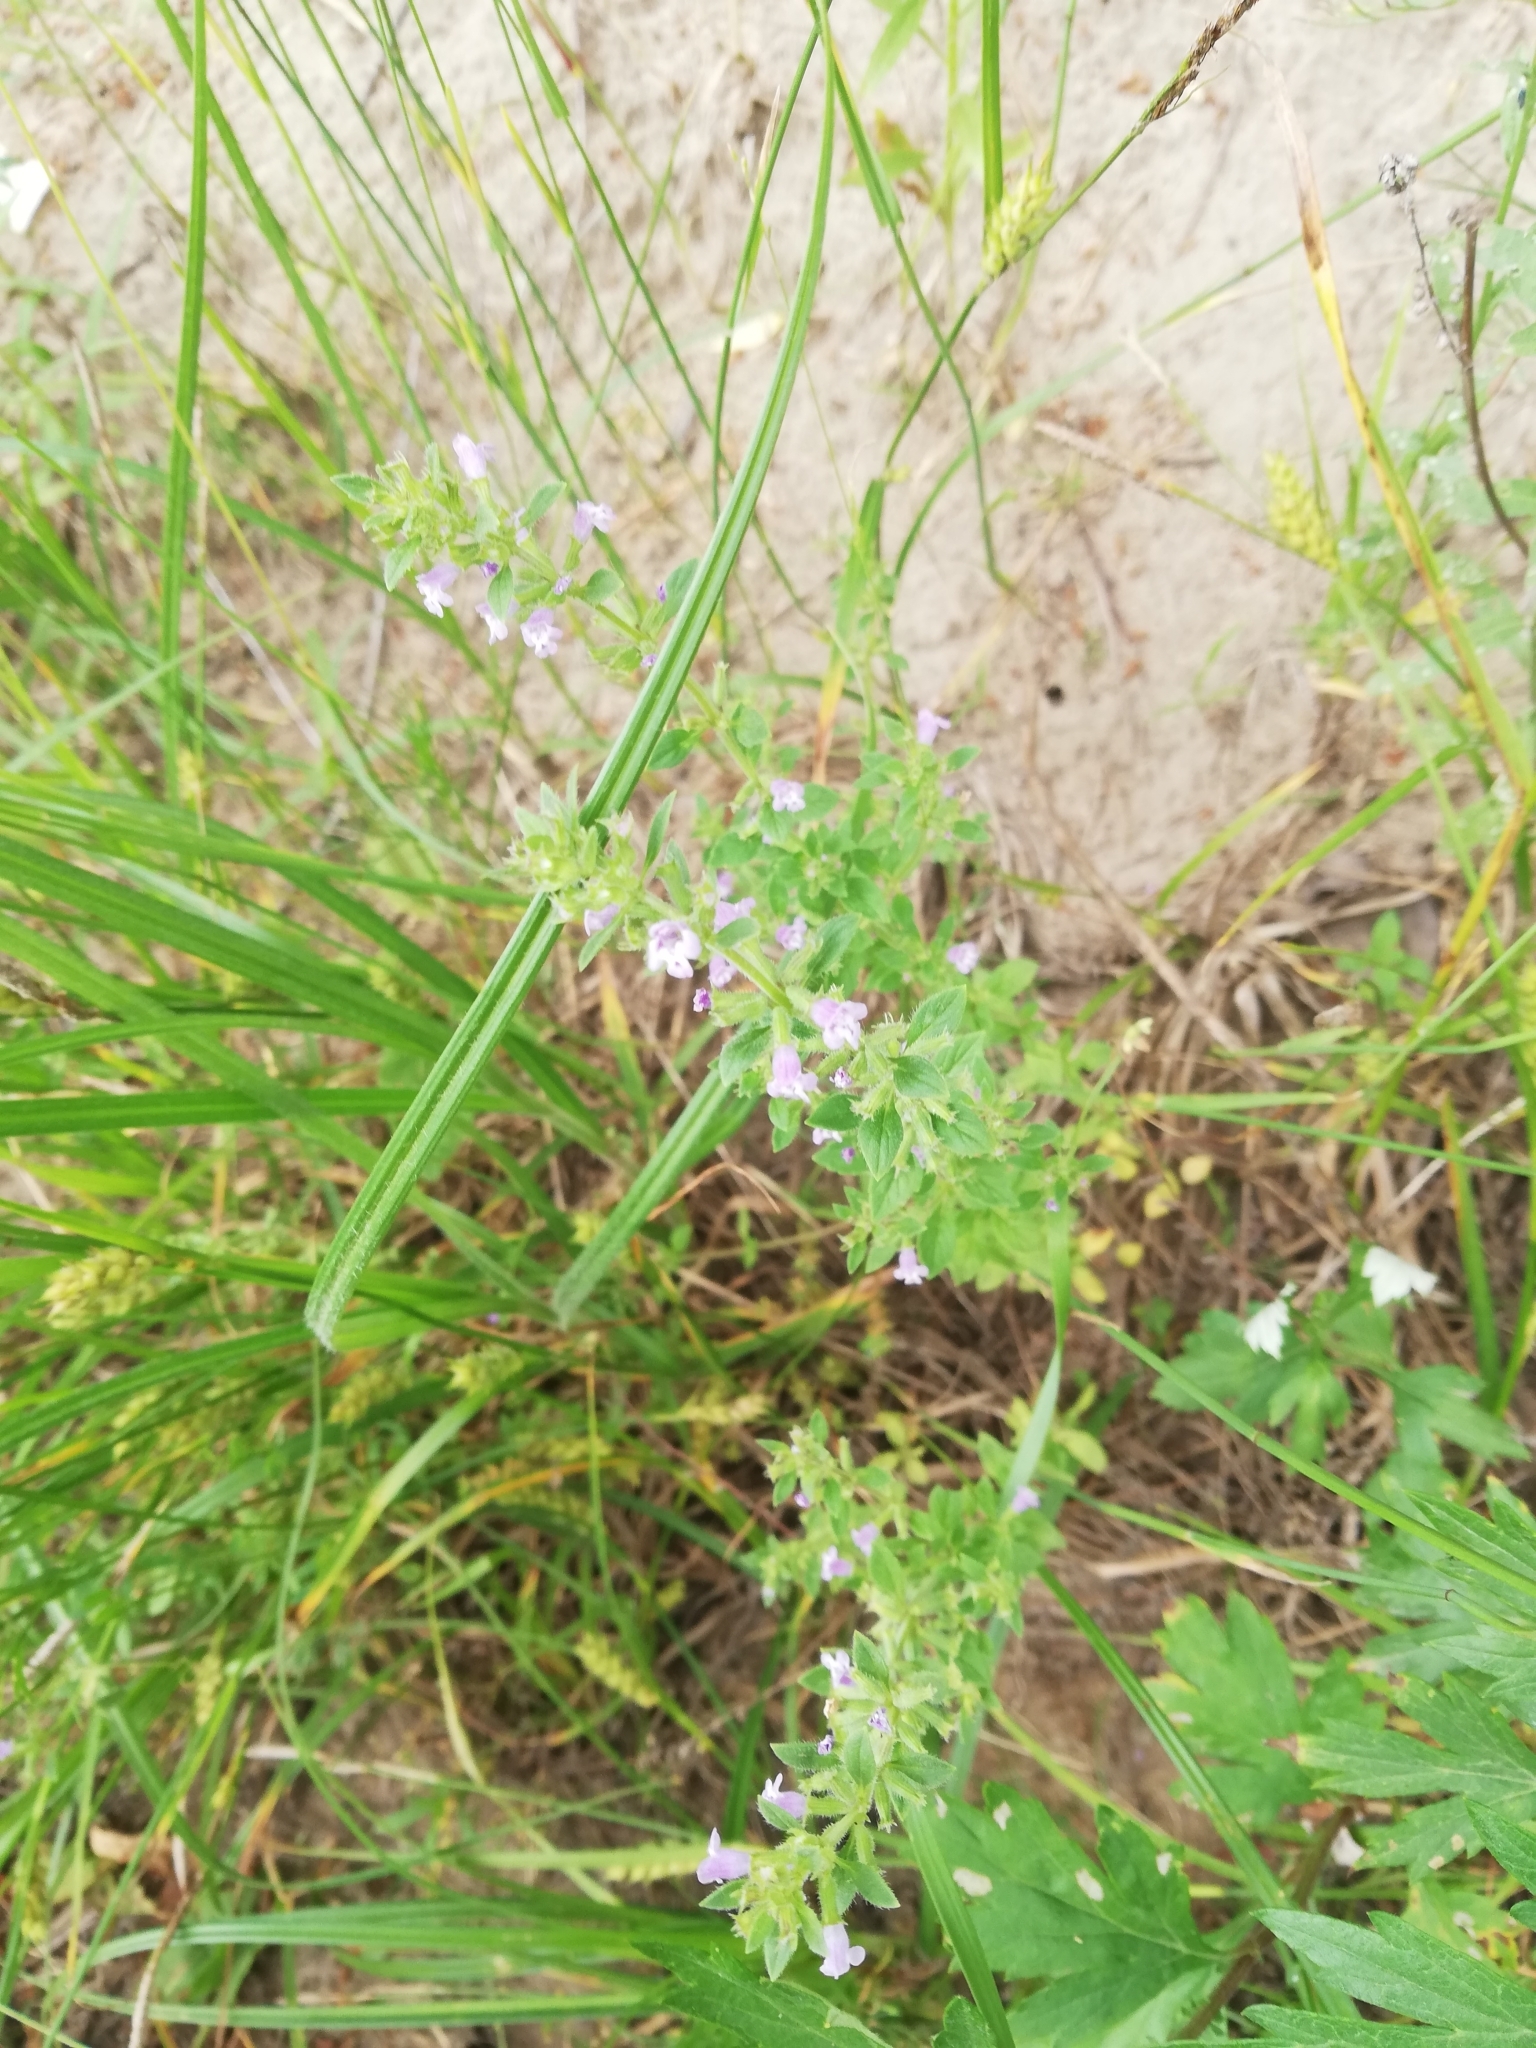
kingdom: Plantae
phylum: Tracheophyta
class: Magnoliopsida
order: Lamiales
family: Lamiaceae
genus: Clinopodium
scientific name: Clinopodium acinos
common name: Basil thyme
